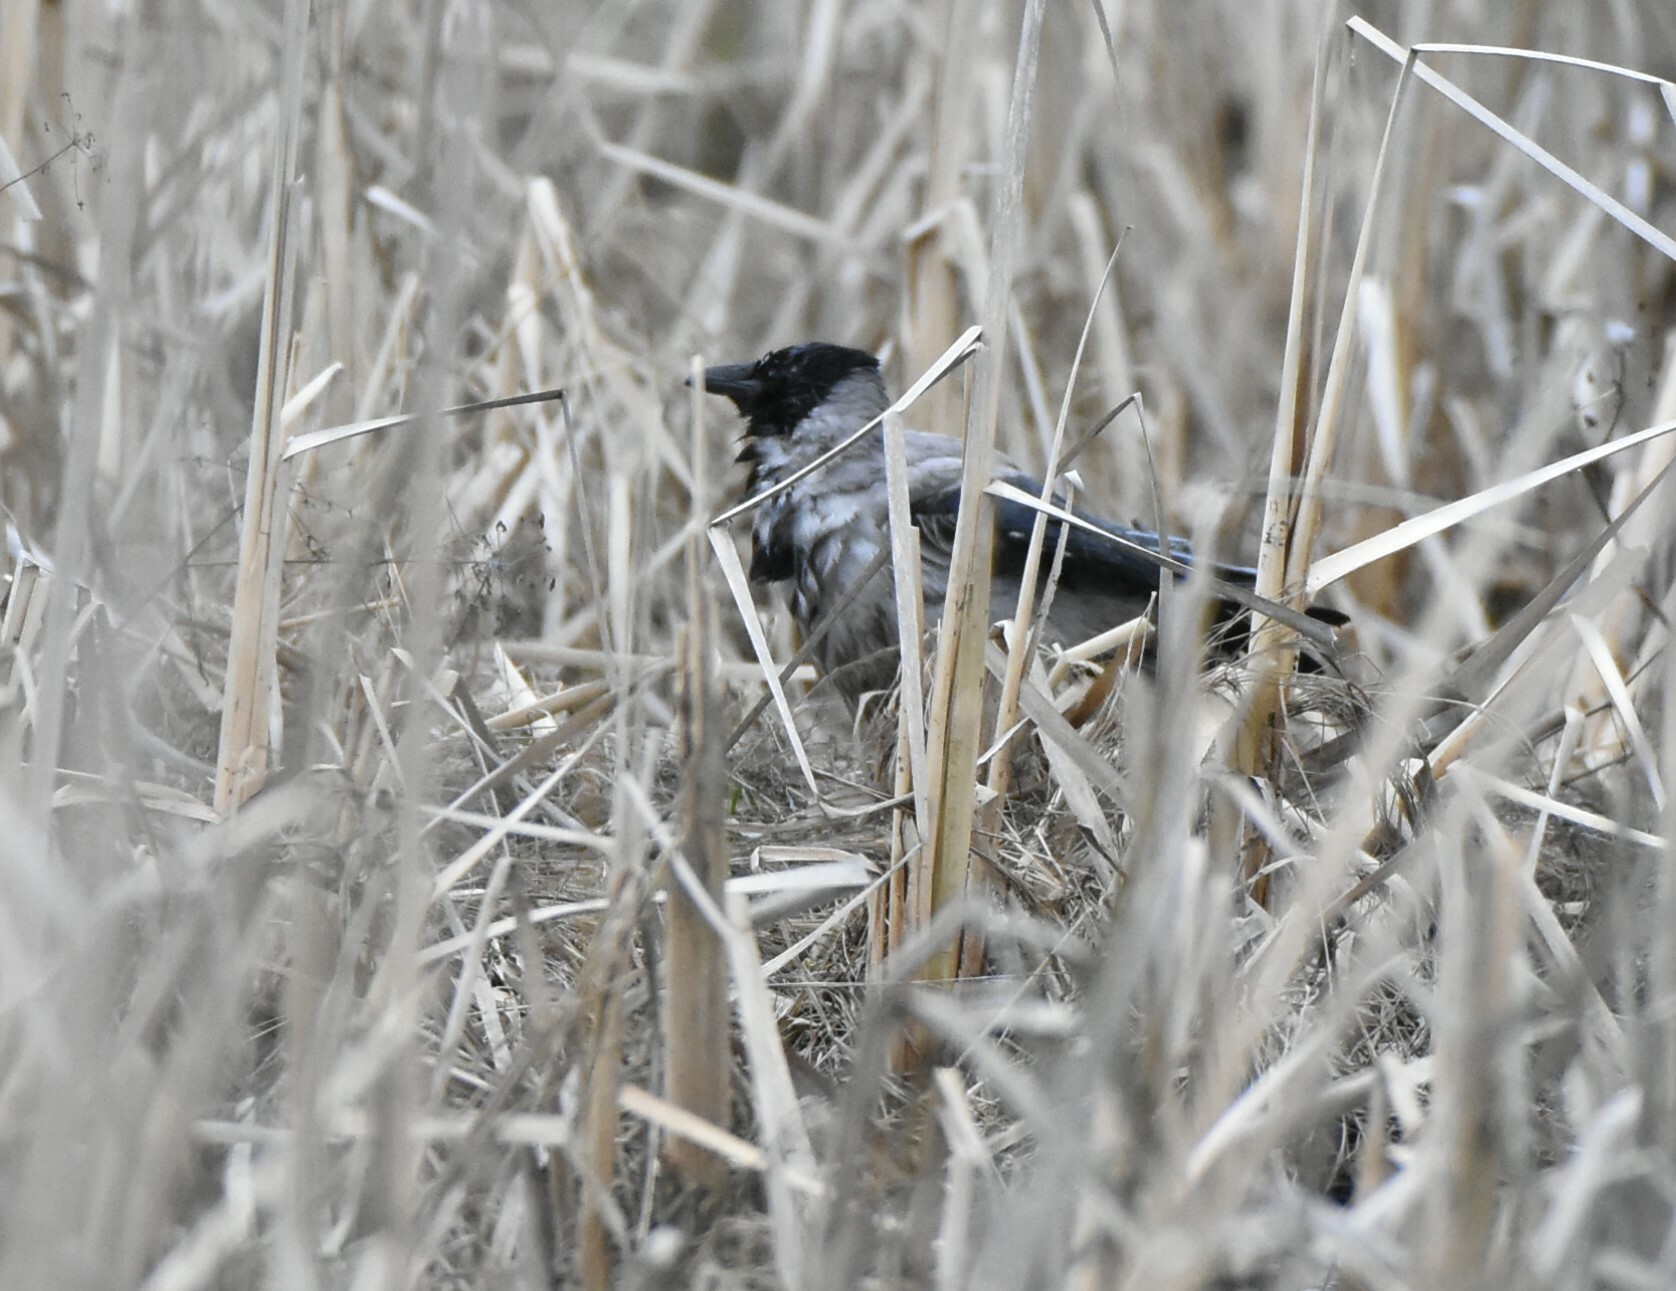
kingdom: Animalia
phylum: Chordata
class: Aves
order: Passeriformes
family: Corvidae
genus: Corvus
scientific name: Corvus cornix
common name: Hooded crow
